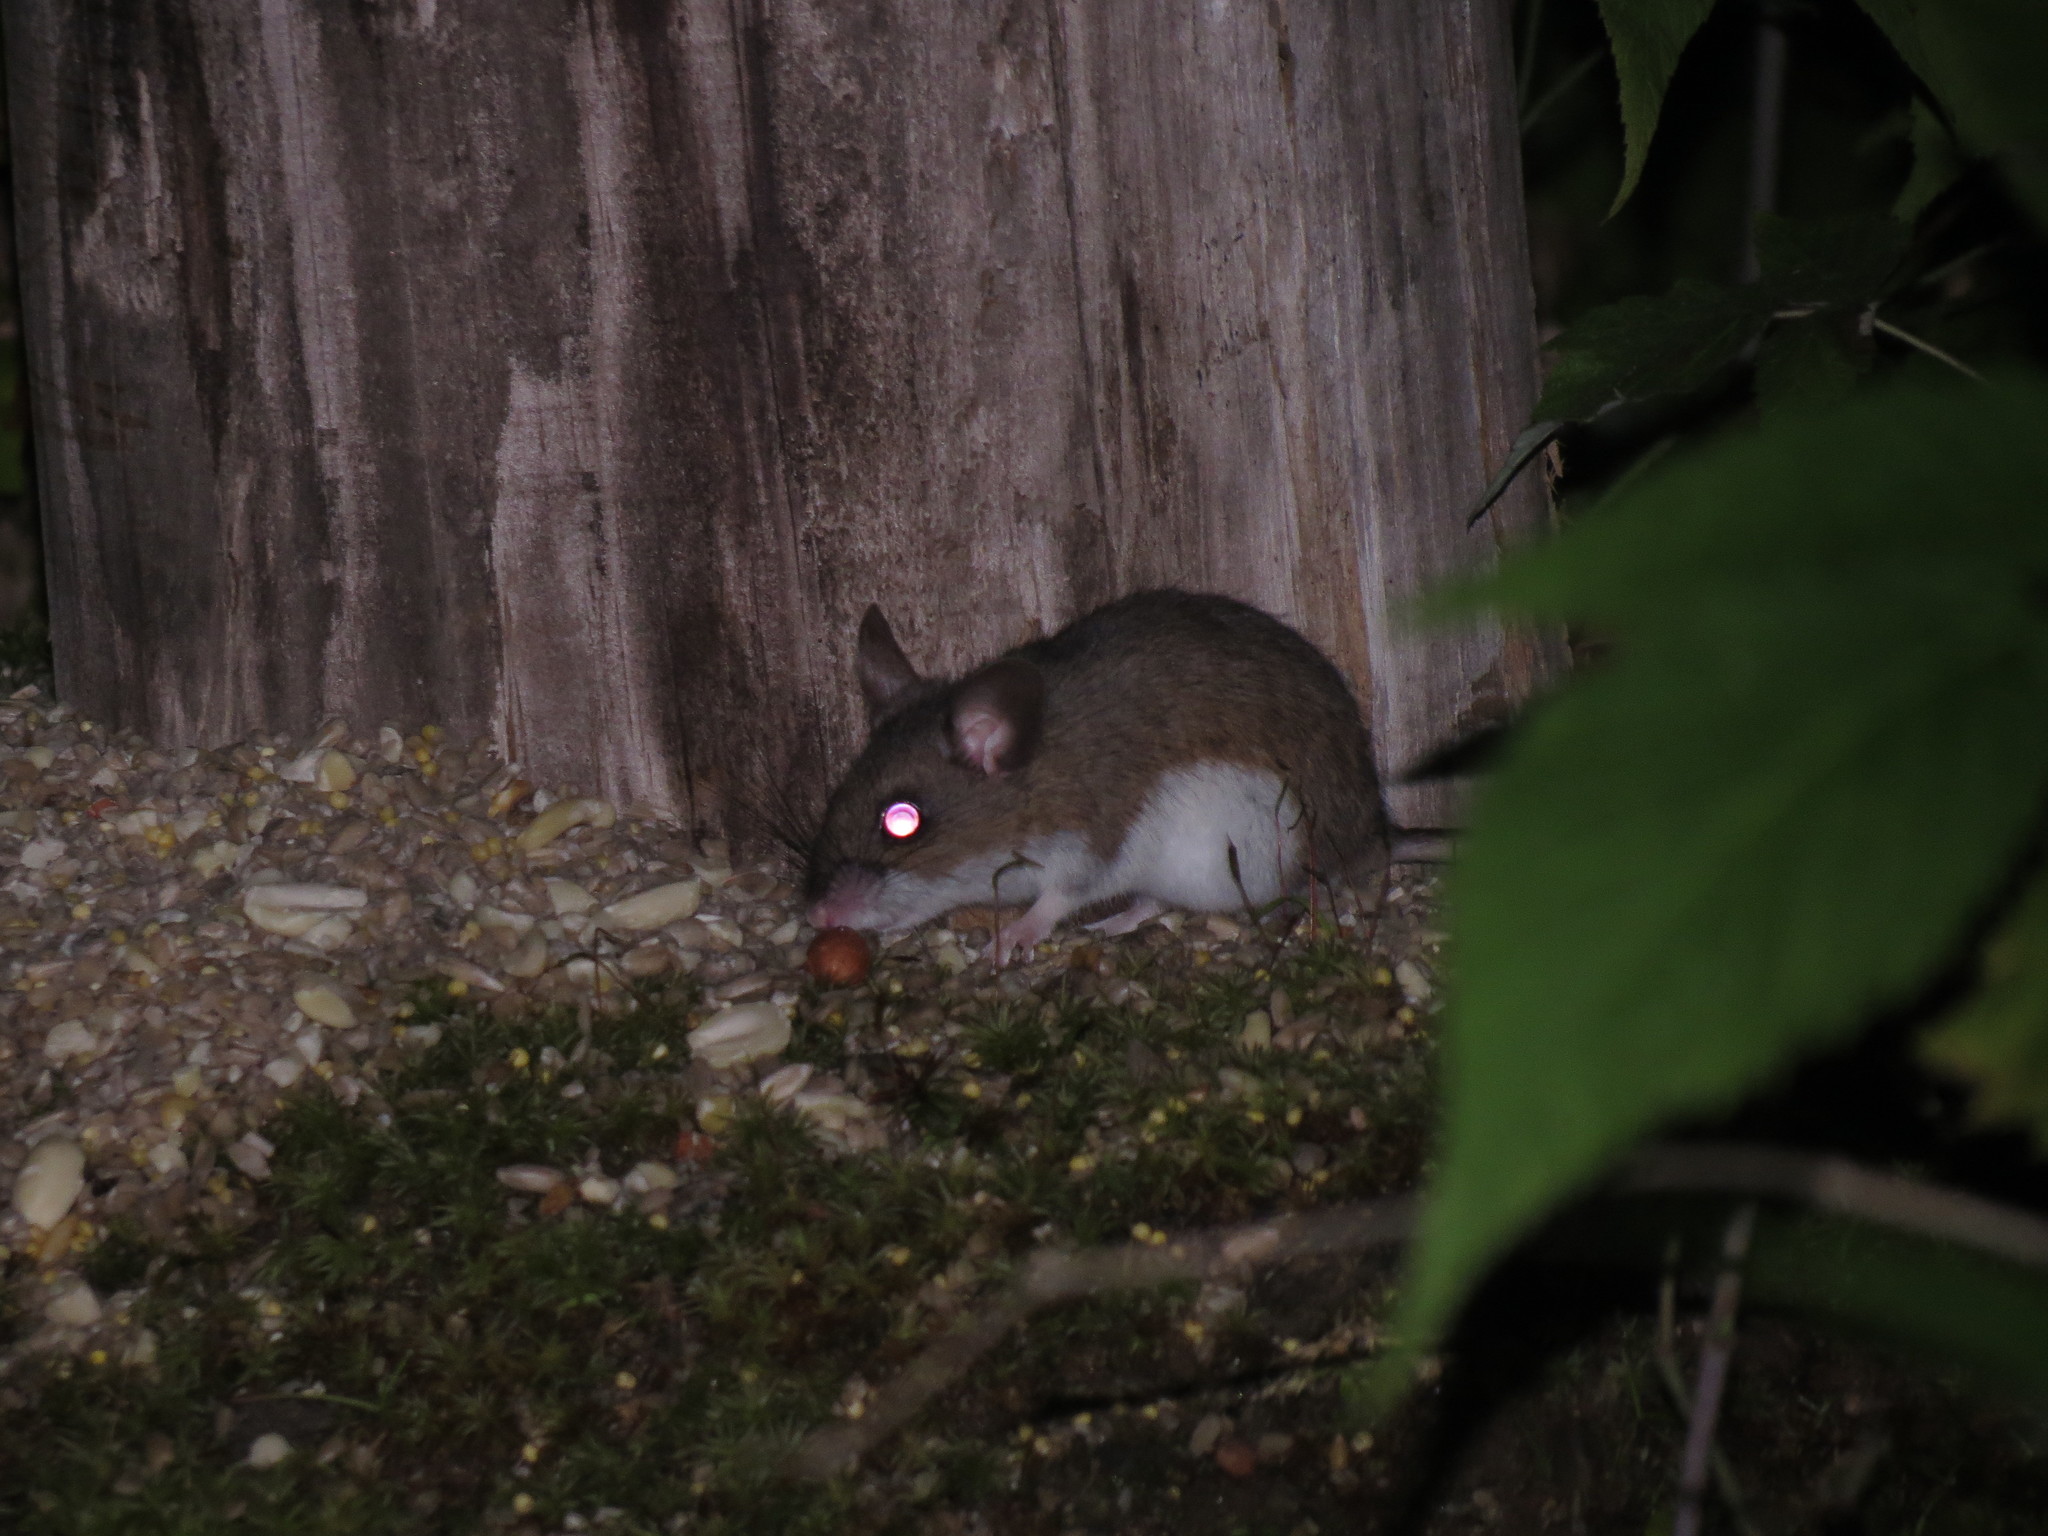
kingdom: Animalia
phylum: Chordata
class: Mammalia
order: Rodentia
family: Cricetidae
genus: Peromyscus
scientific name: Peromyscus
